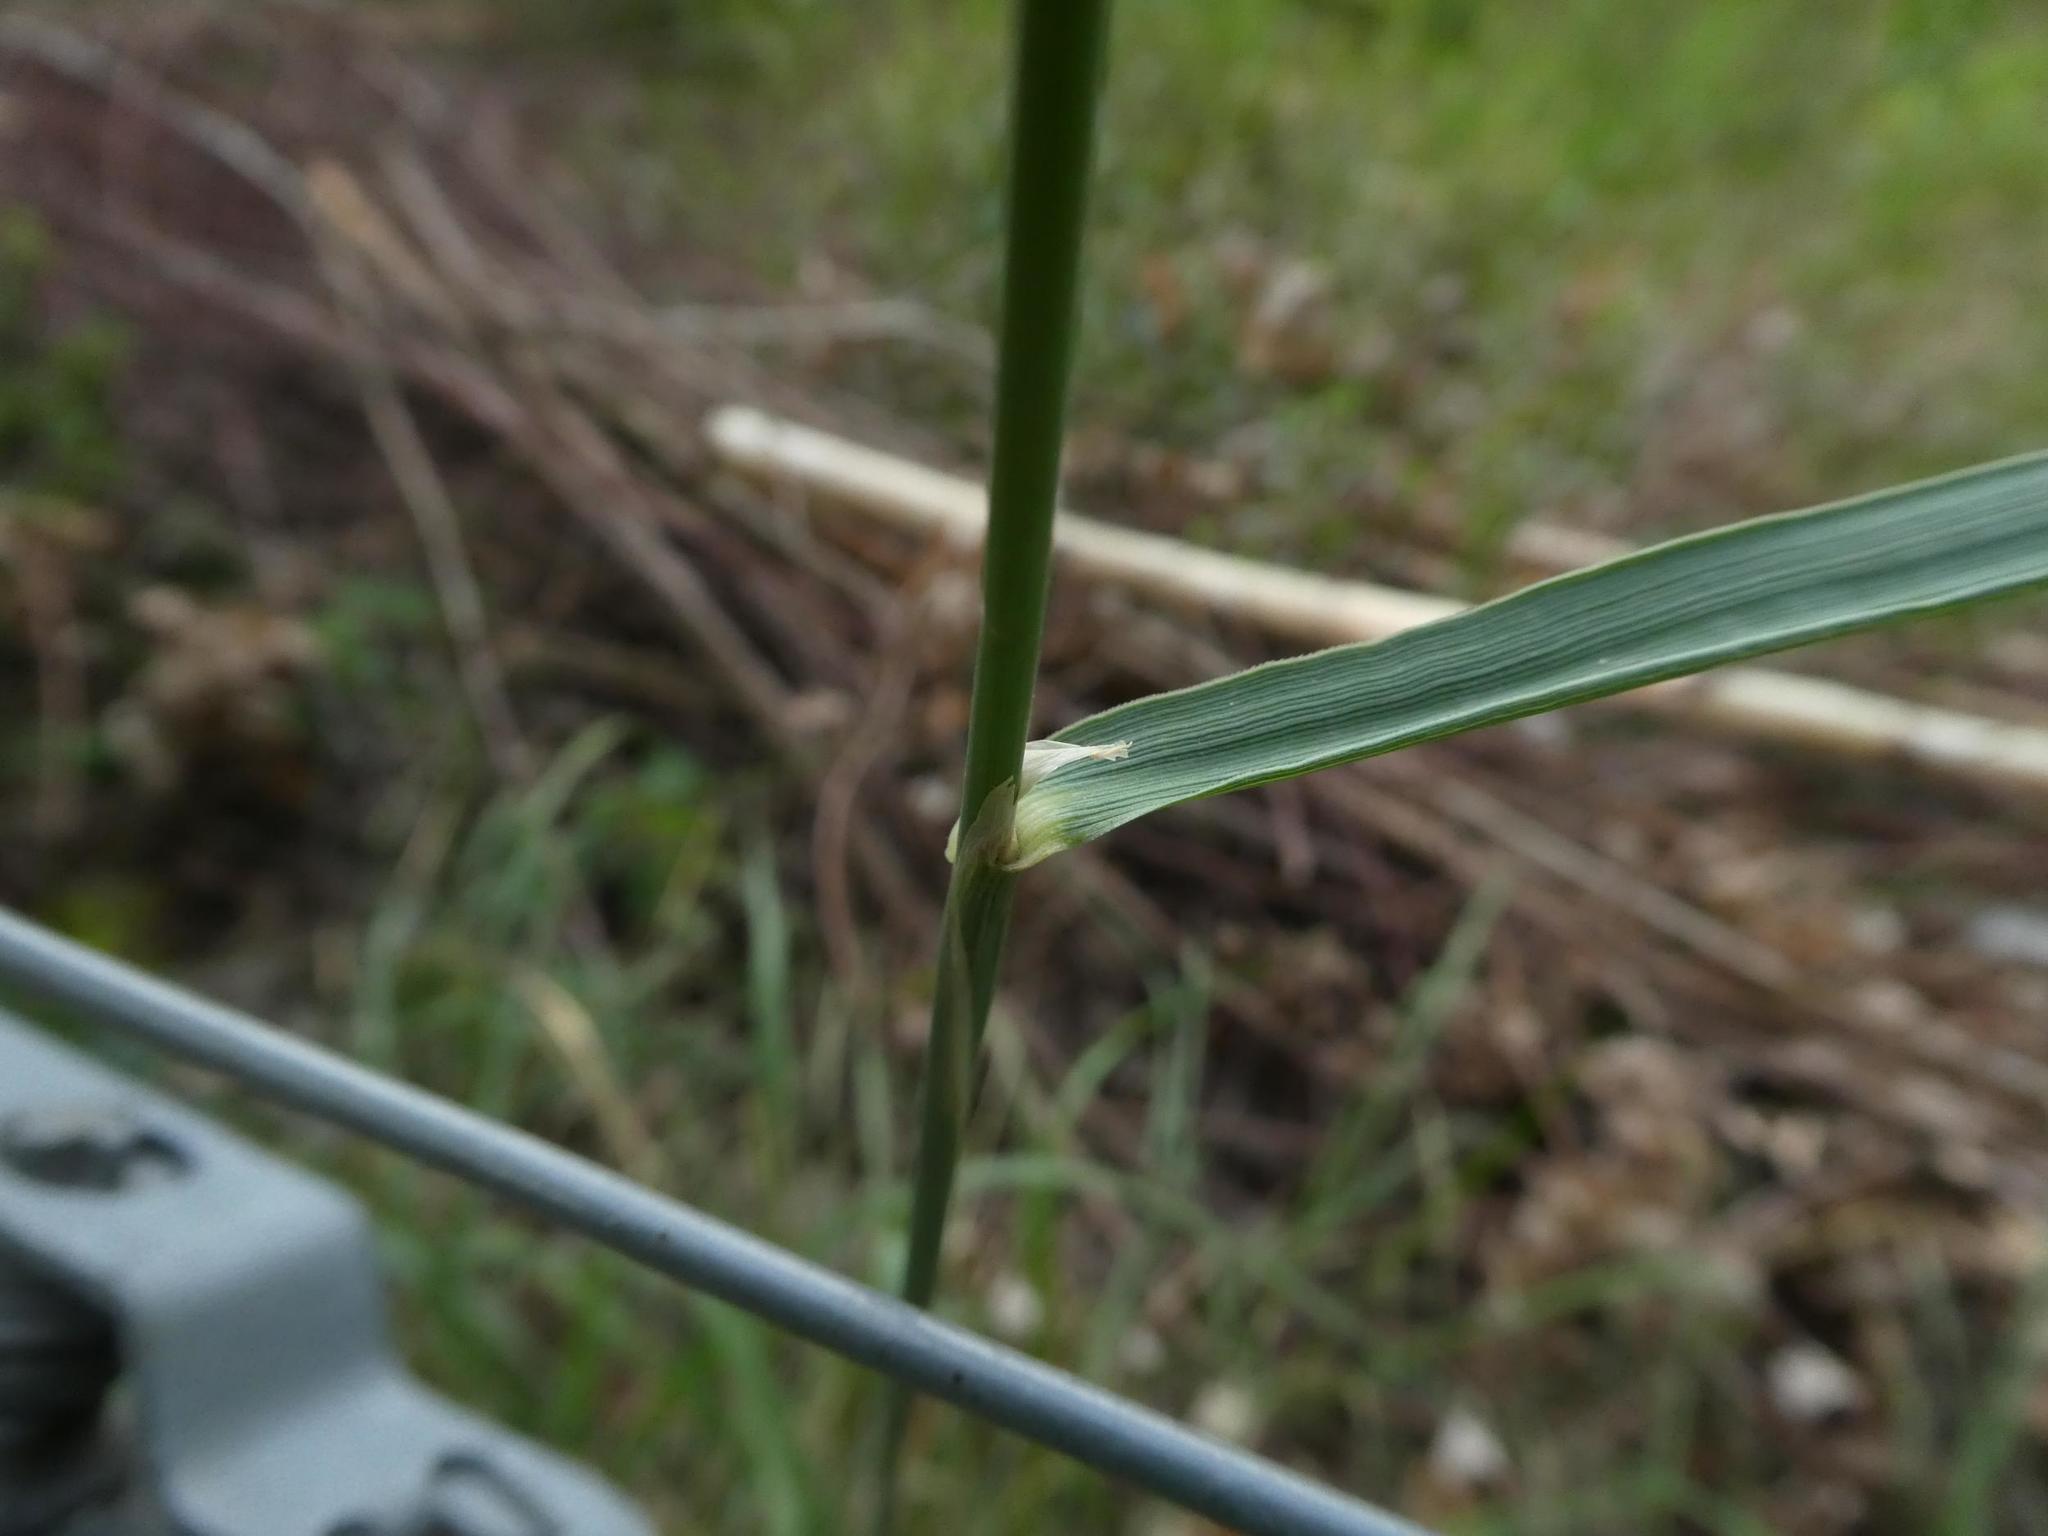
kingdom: Plantae
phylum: Tracheophyta
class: Liliopsida
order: Poales
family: Poaceae
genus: Calamagrostis
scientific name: Calamagrostis epigejos
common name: Wood small-reed
